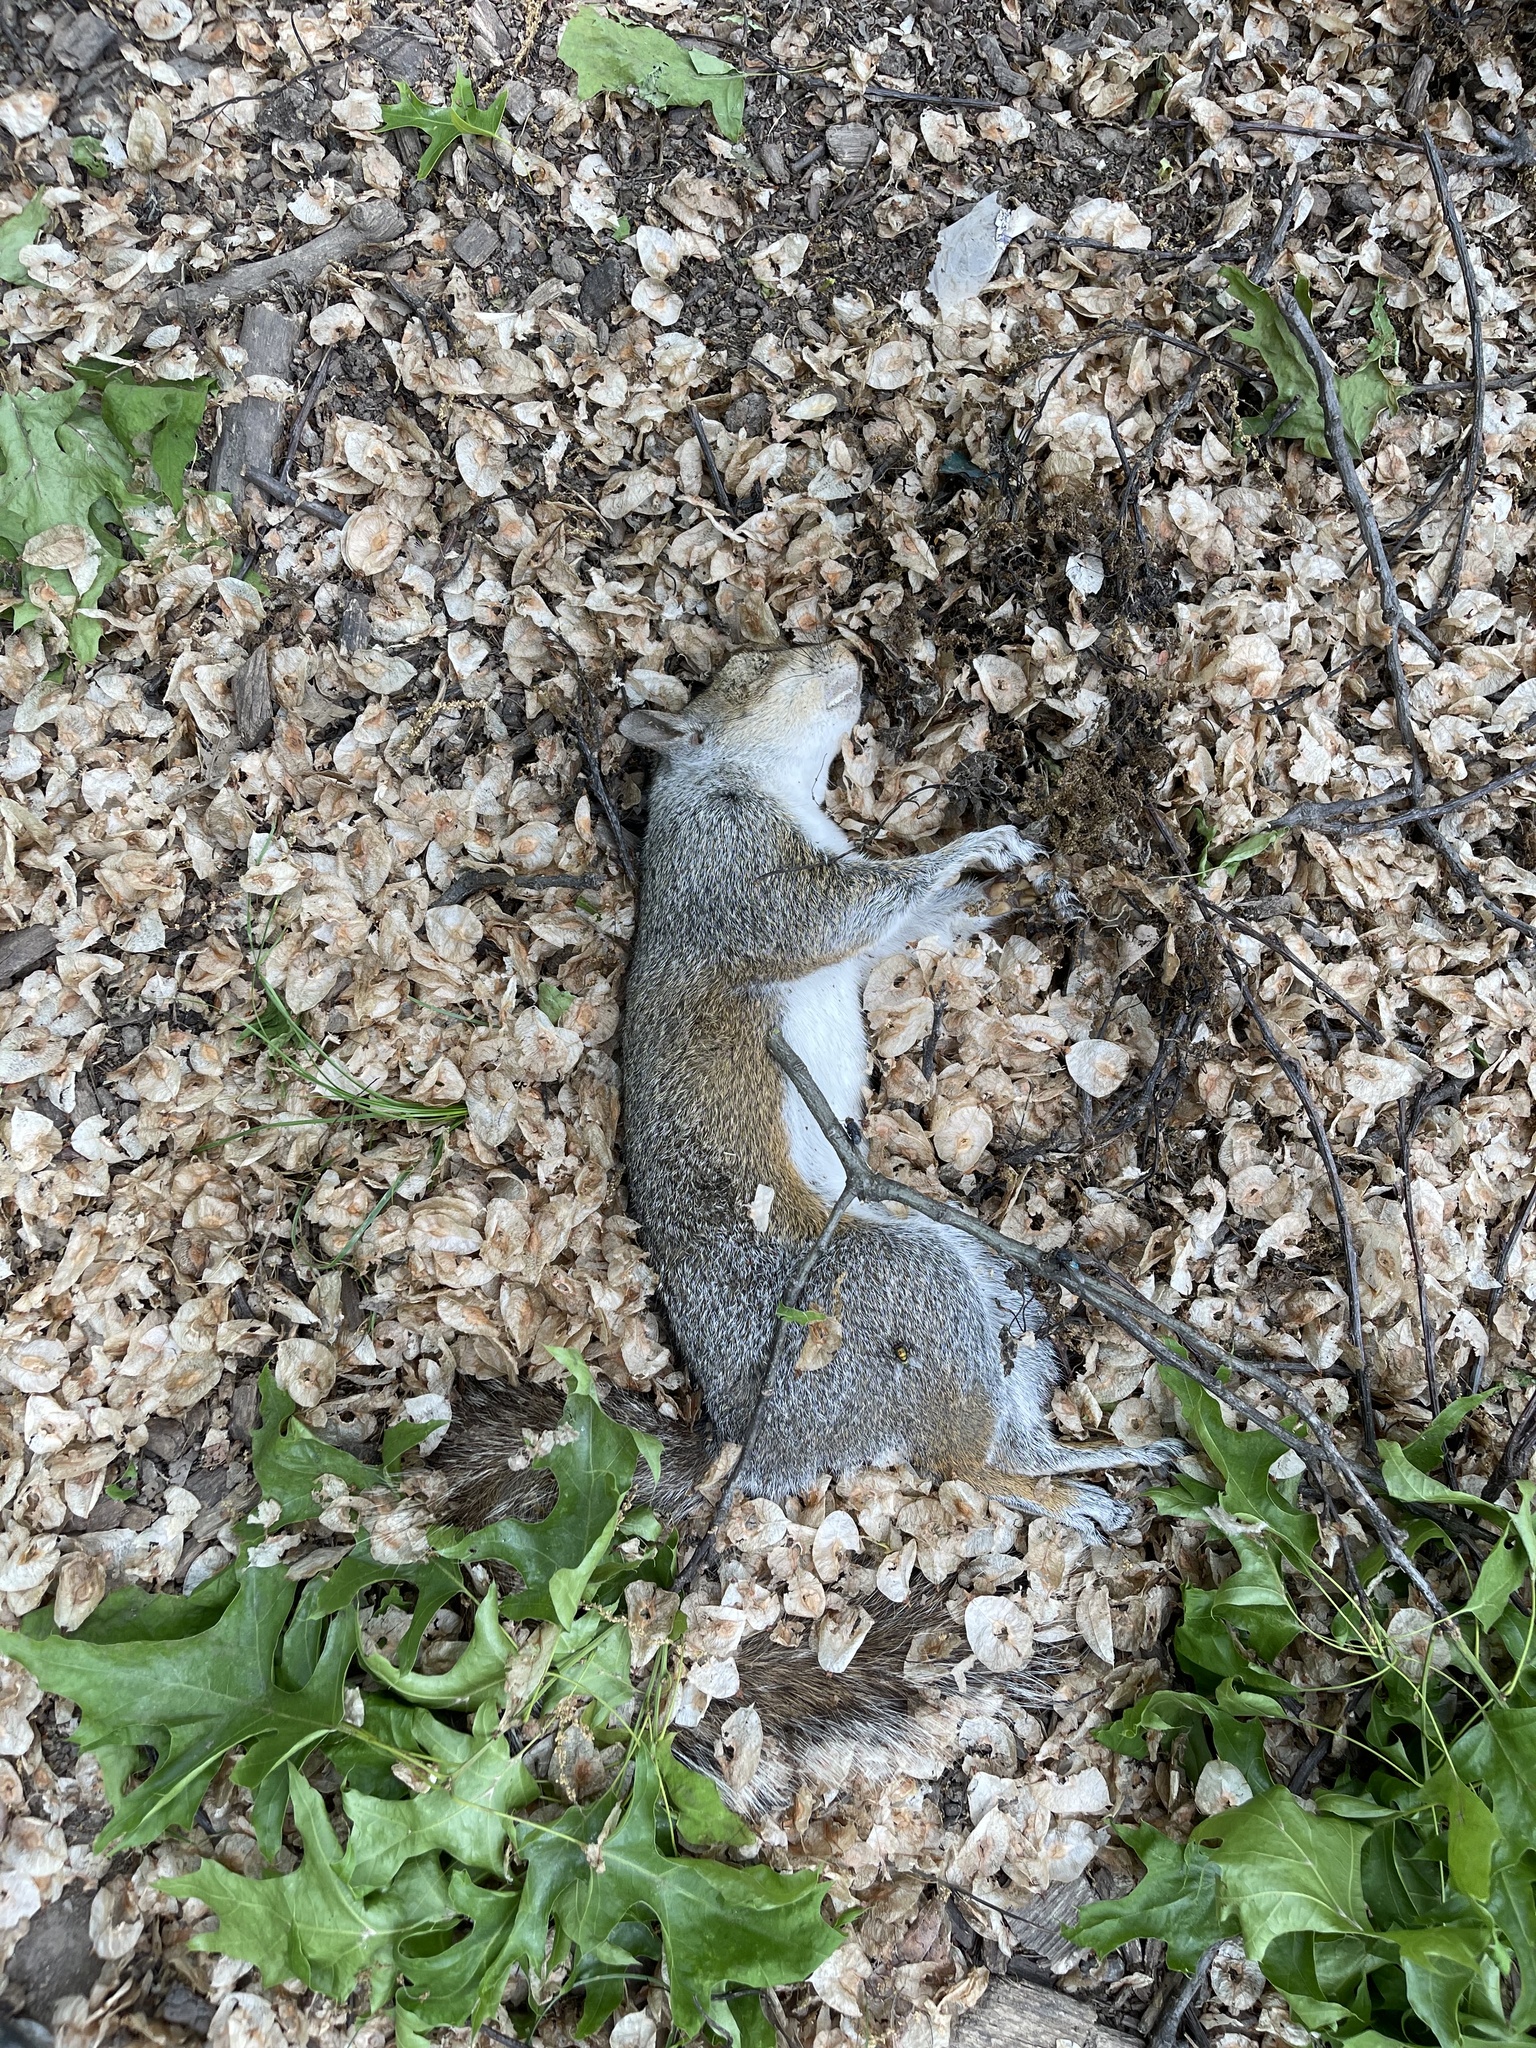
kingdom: Animalia
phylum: Chordata
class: Mammalia
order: Rodentia
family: Sciuridae
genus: Sciurus
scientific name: Sciurus carolinensis
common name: Eastern gray squirrel
